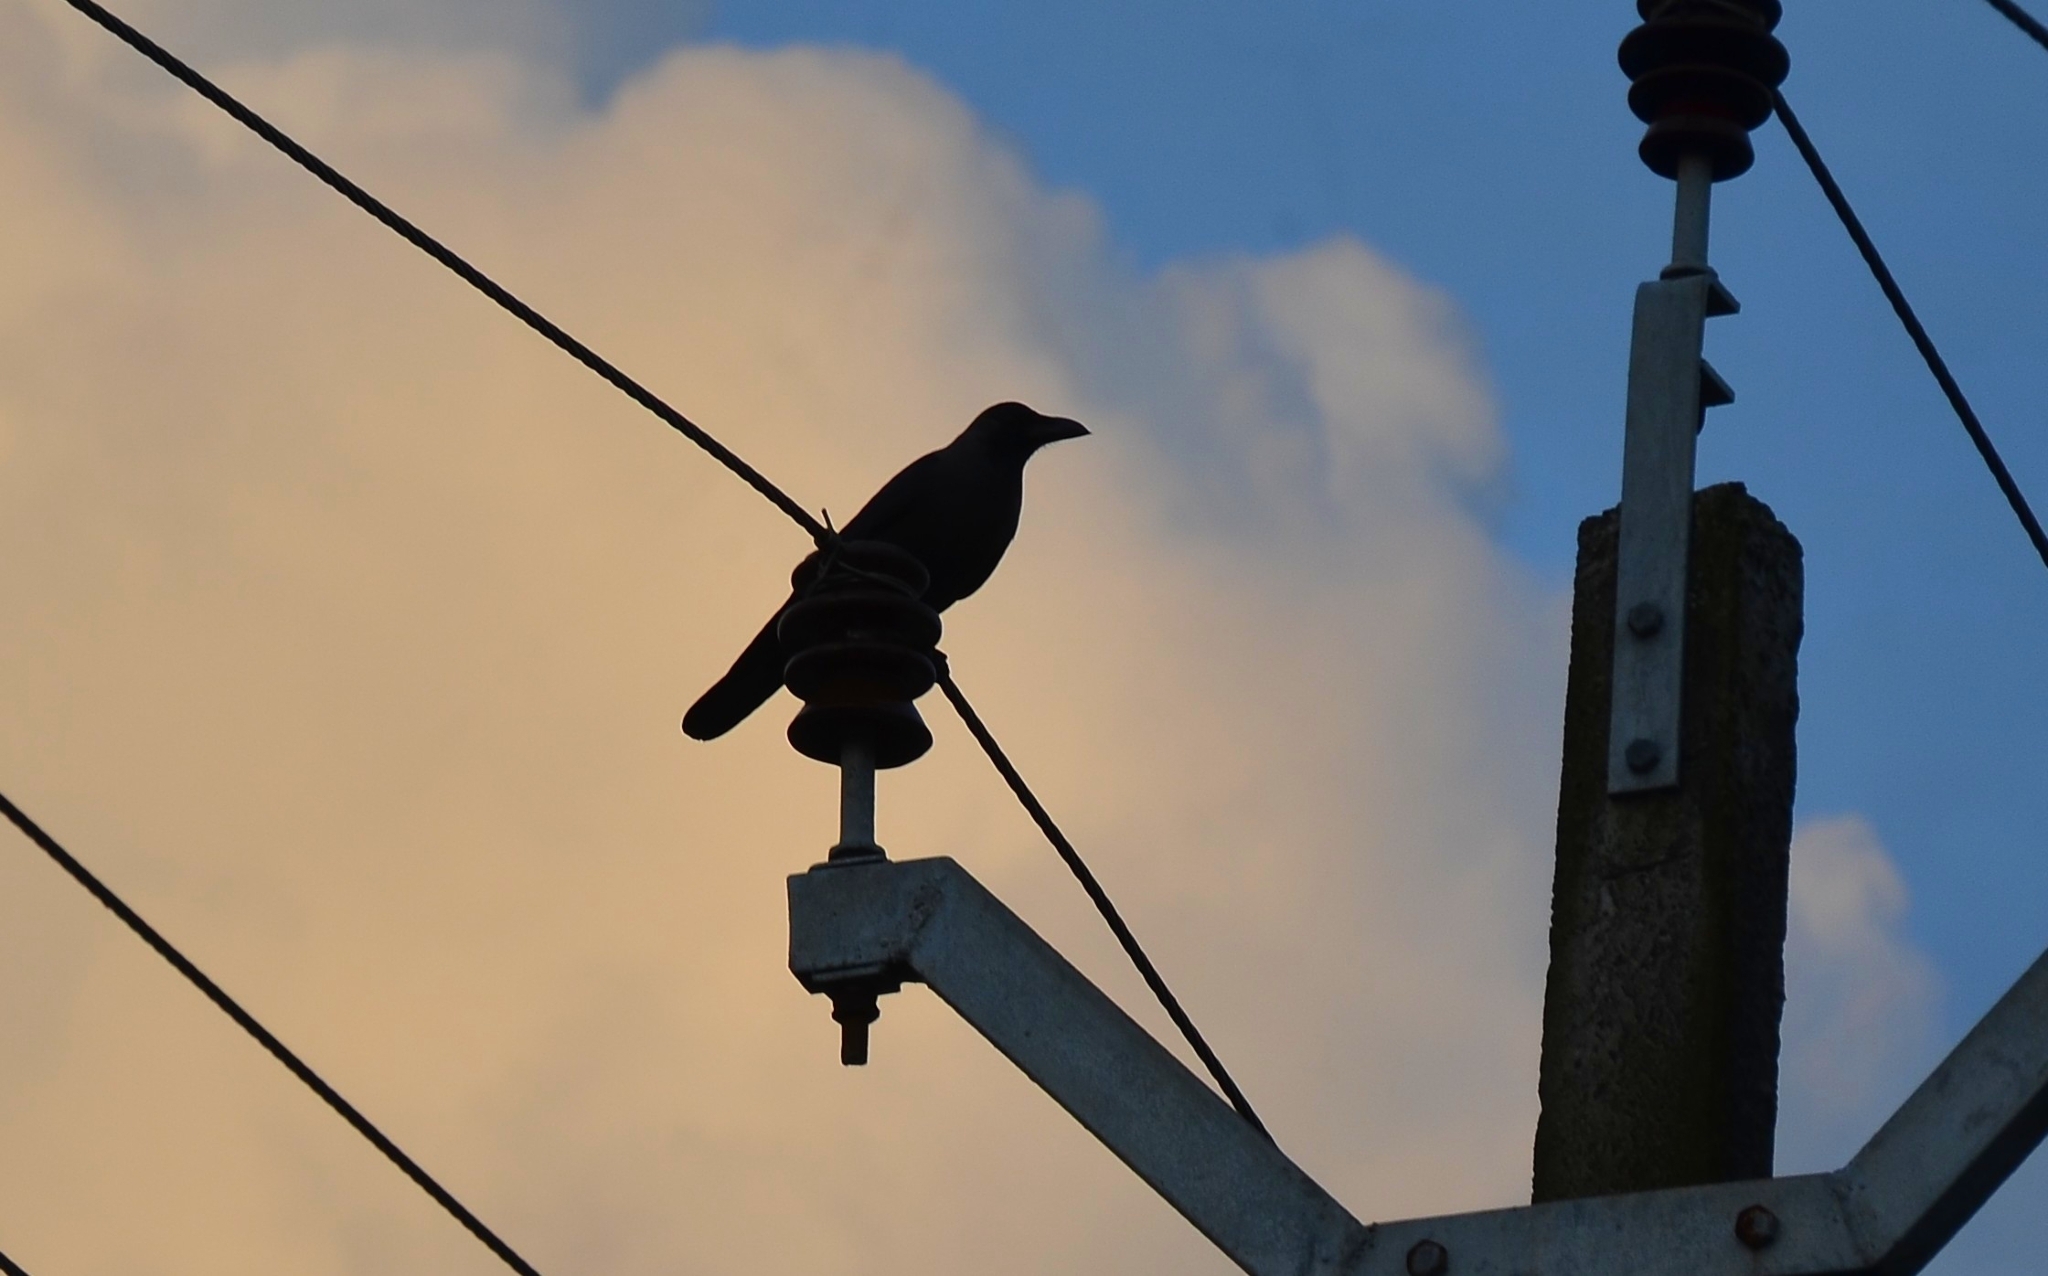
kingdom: Animalia
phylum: Chordata
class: Aves
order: Passeriformes
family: Corvidae
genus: Corvus
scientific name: Corvus splendens
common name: House crow
